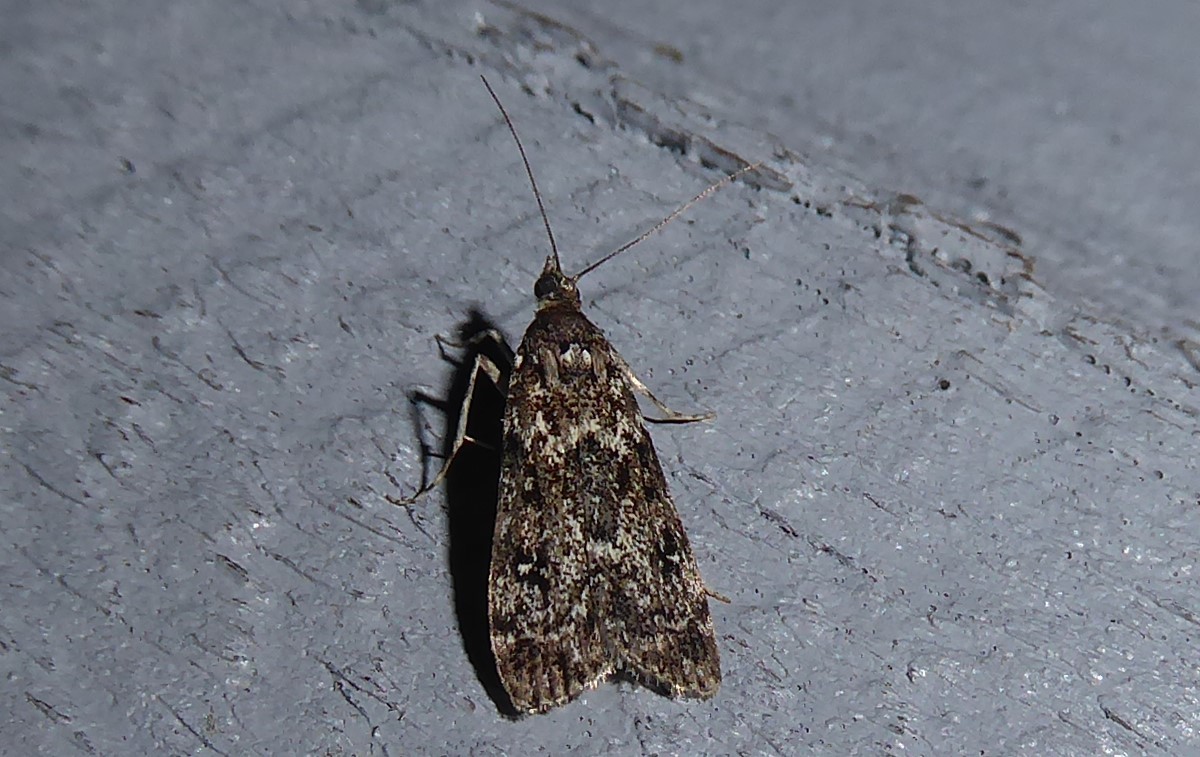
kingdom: Animalia
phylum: Arthropoda
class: Insecta
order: Lepidoptera
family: Crambidae
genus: Eudonia
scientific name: Eudonia philerga
